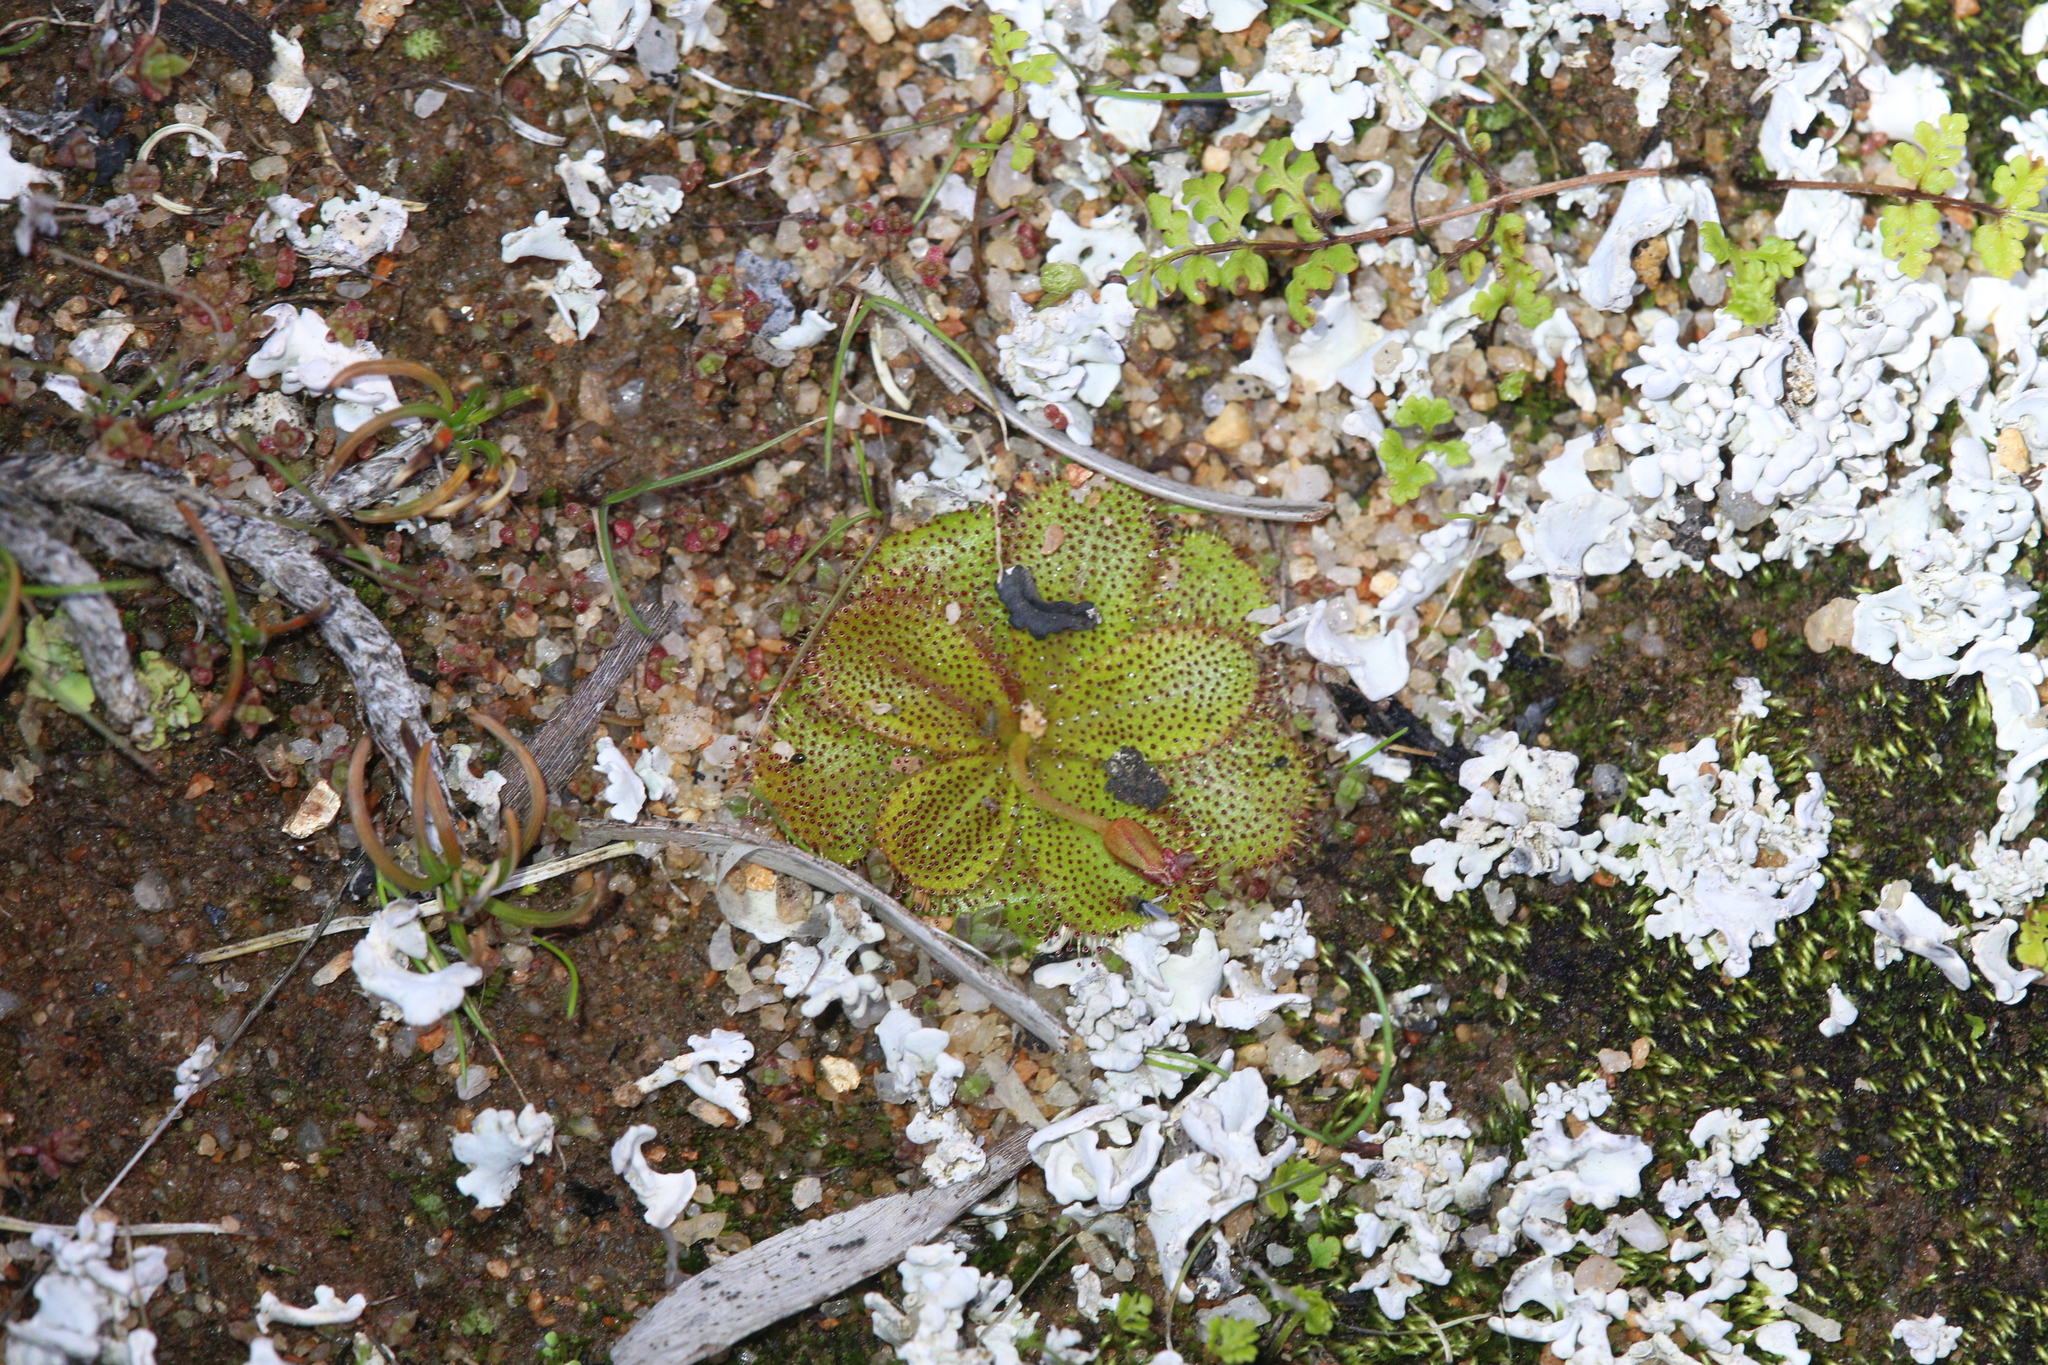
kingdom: Plantae
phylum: Tracheophyta
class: Magnoliopsida
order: Caryophyllales
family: Droseraceae
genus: Drosera
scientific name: Drosera bulbosa
